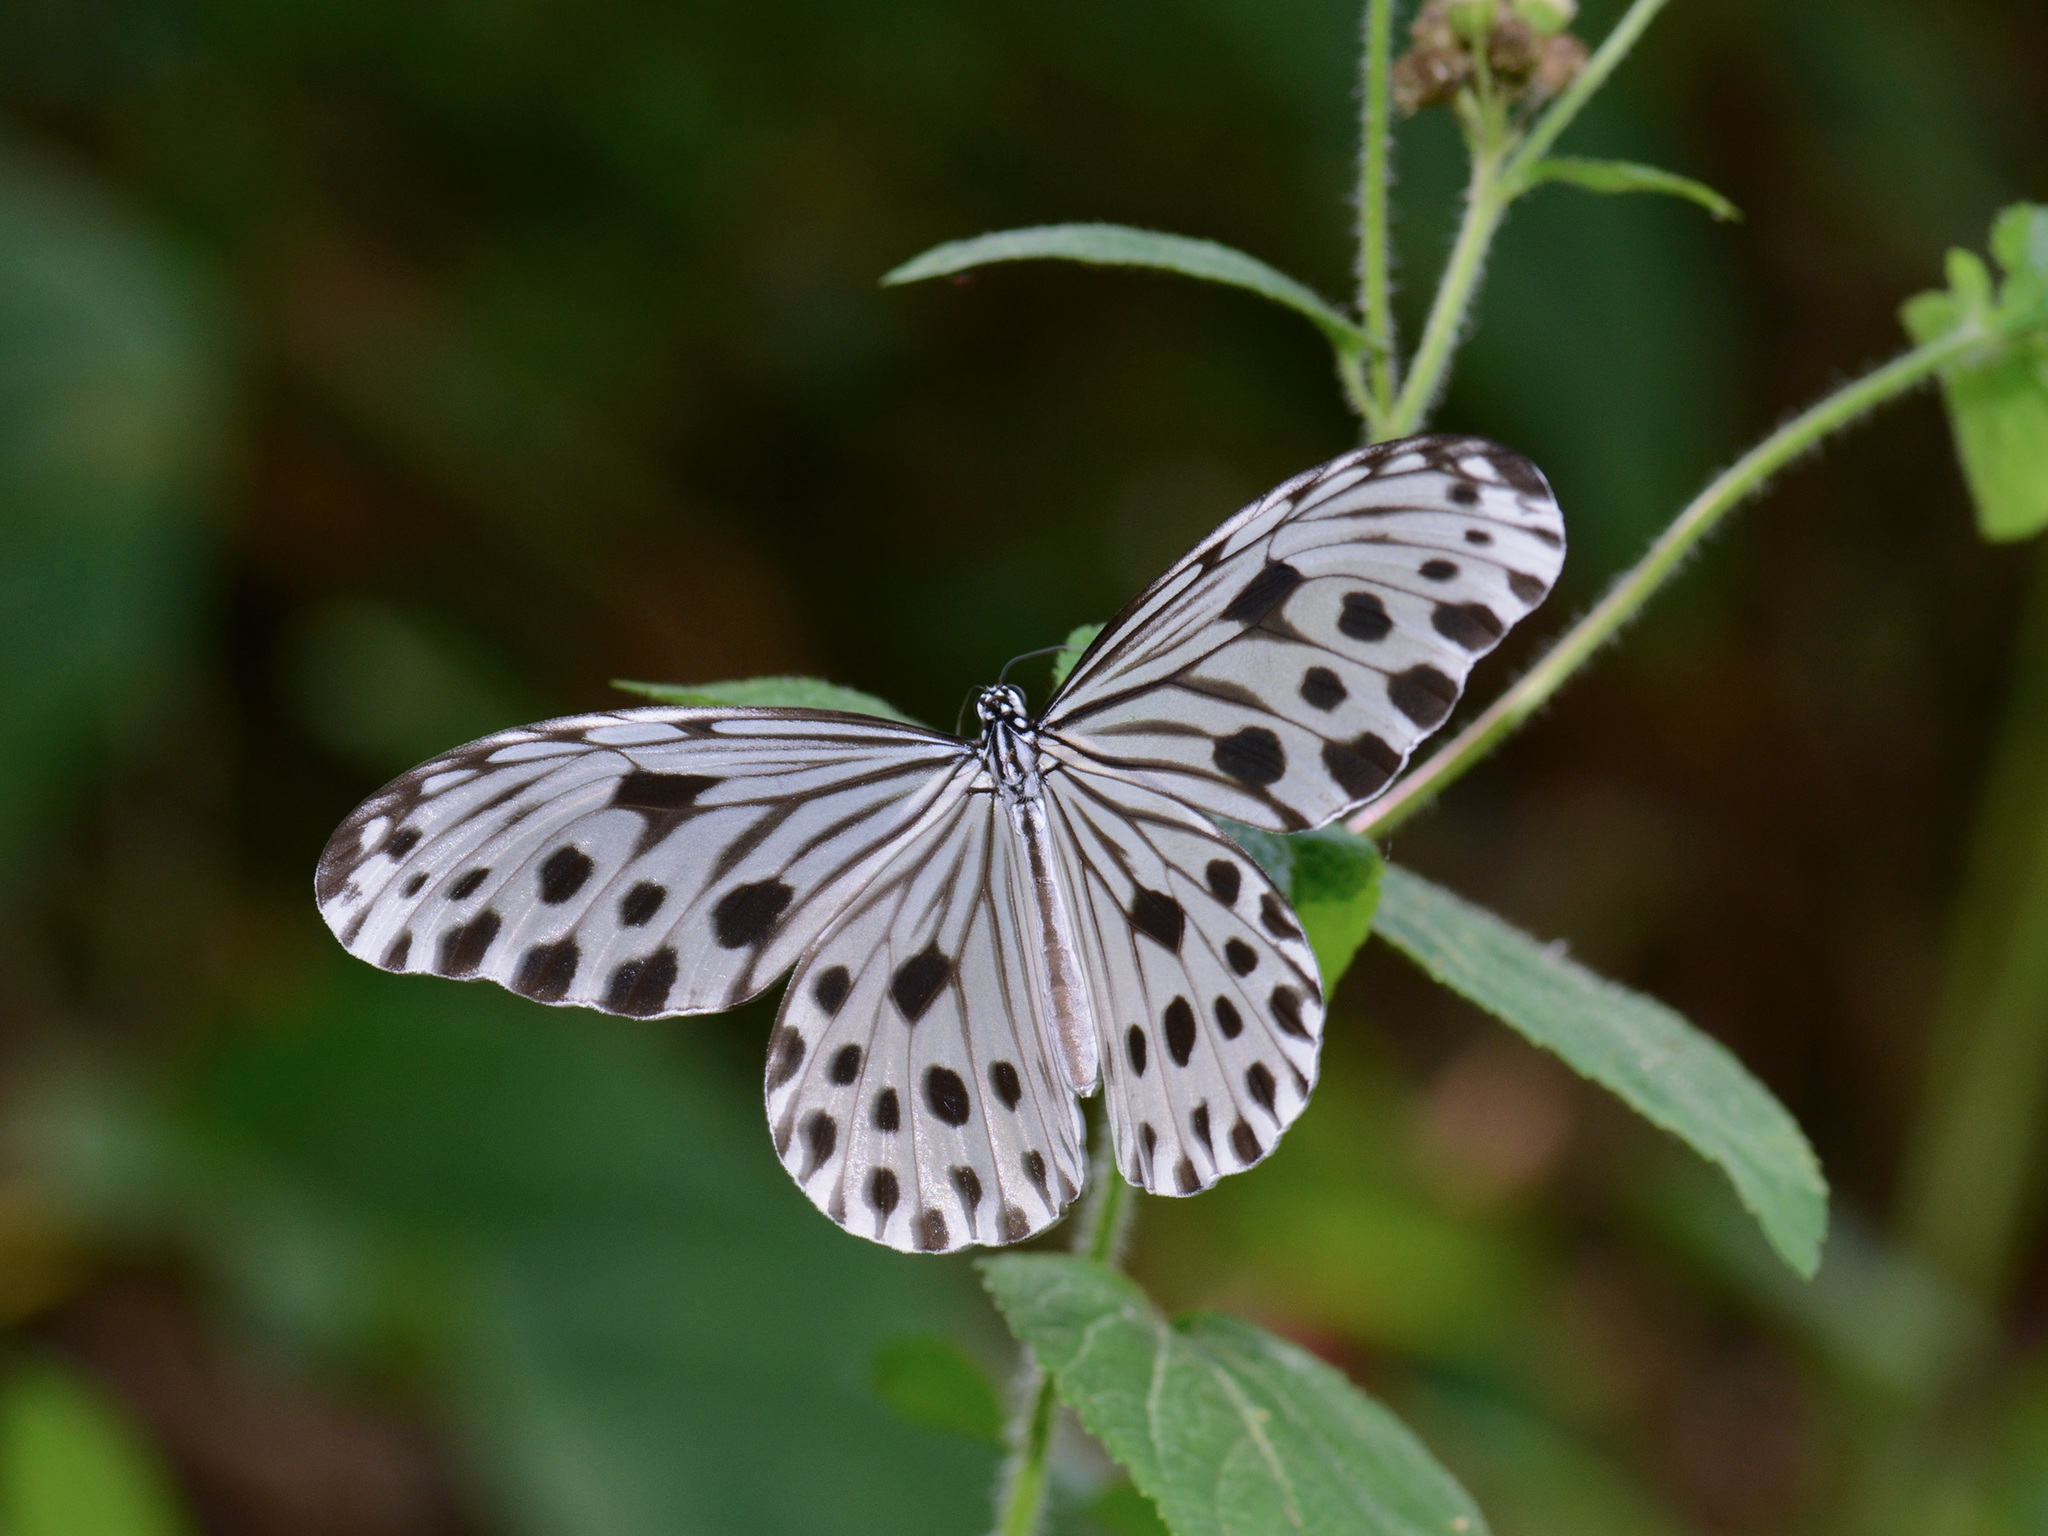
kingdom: Animalia
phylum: Arthropoda
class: Insecta
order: Lepidoptera
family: Nymphalidae
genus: Ideopsis
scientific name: Ideopsis gaura
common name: Smaller wood nymph
